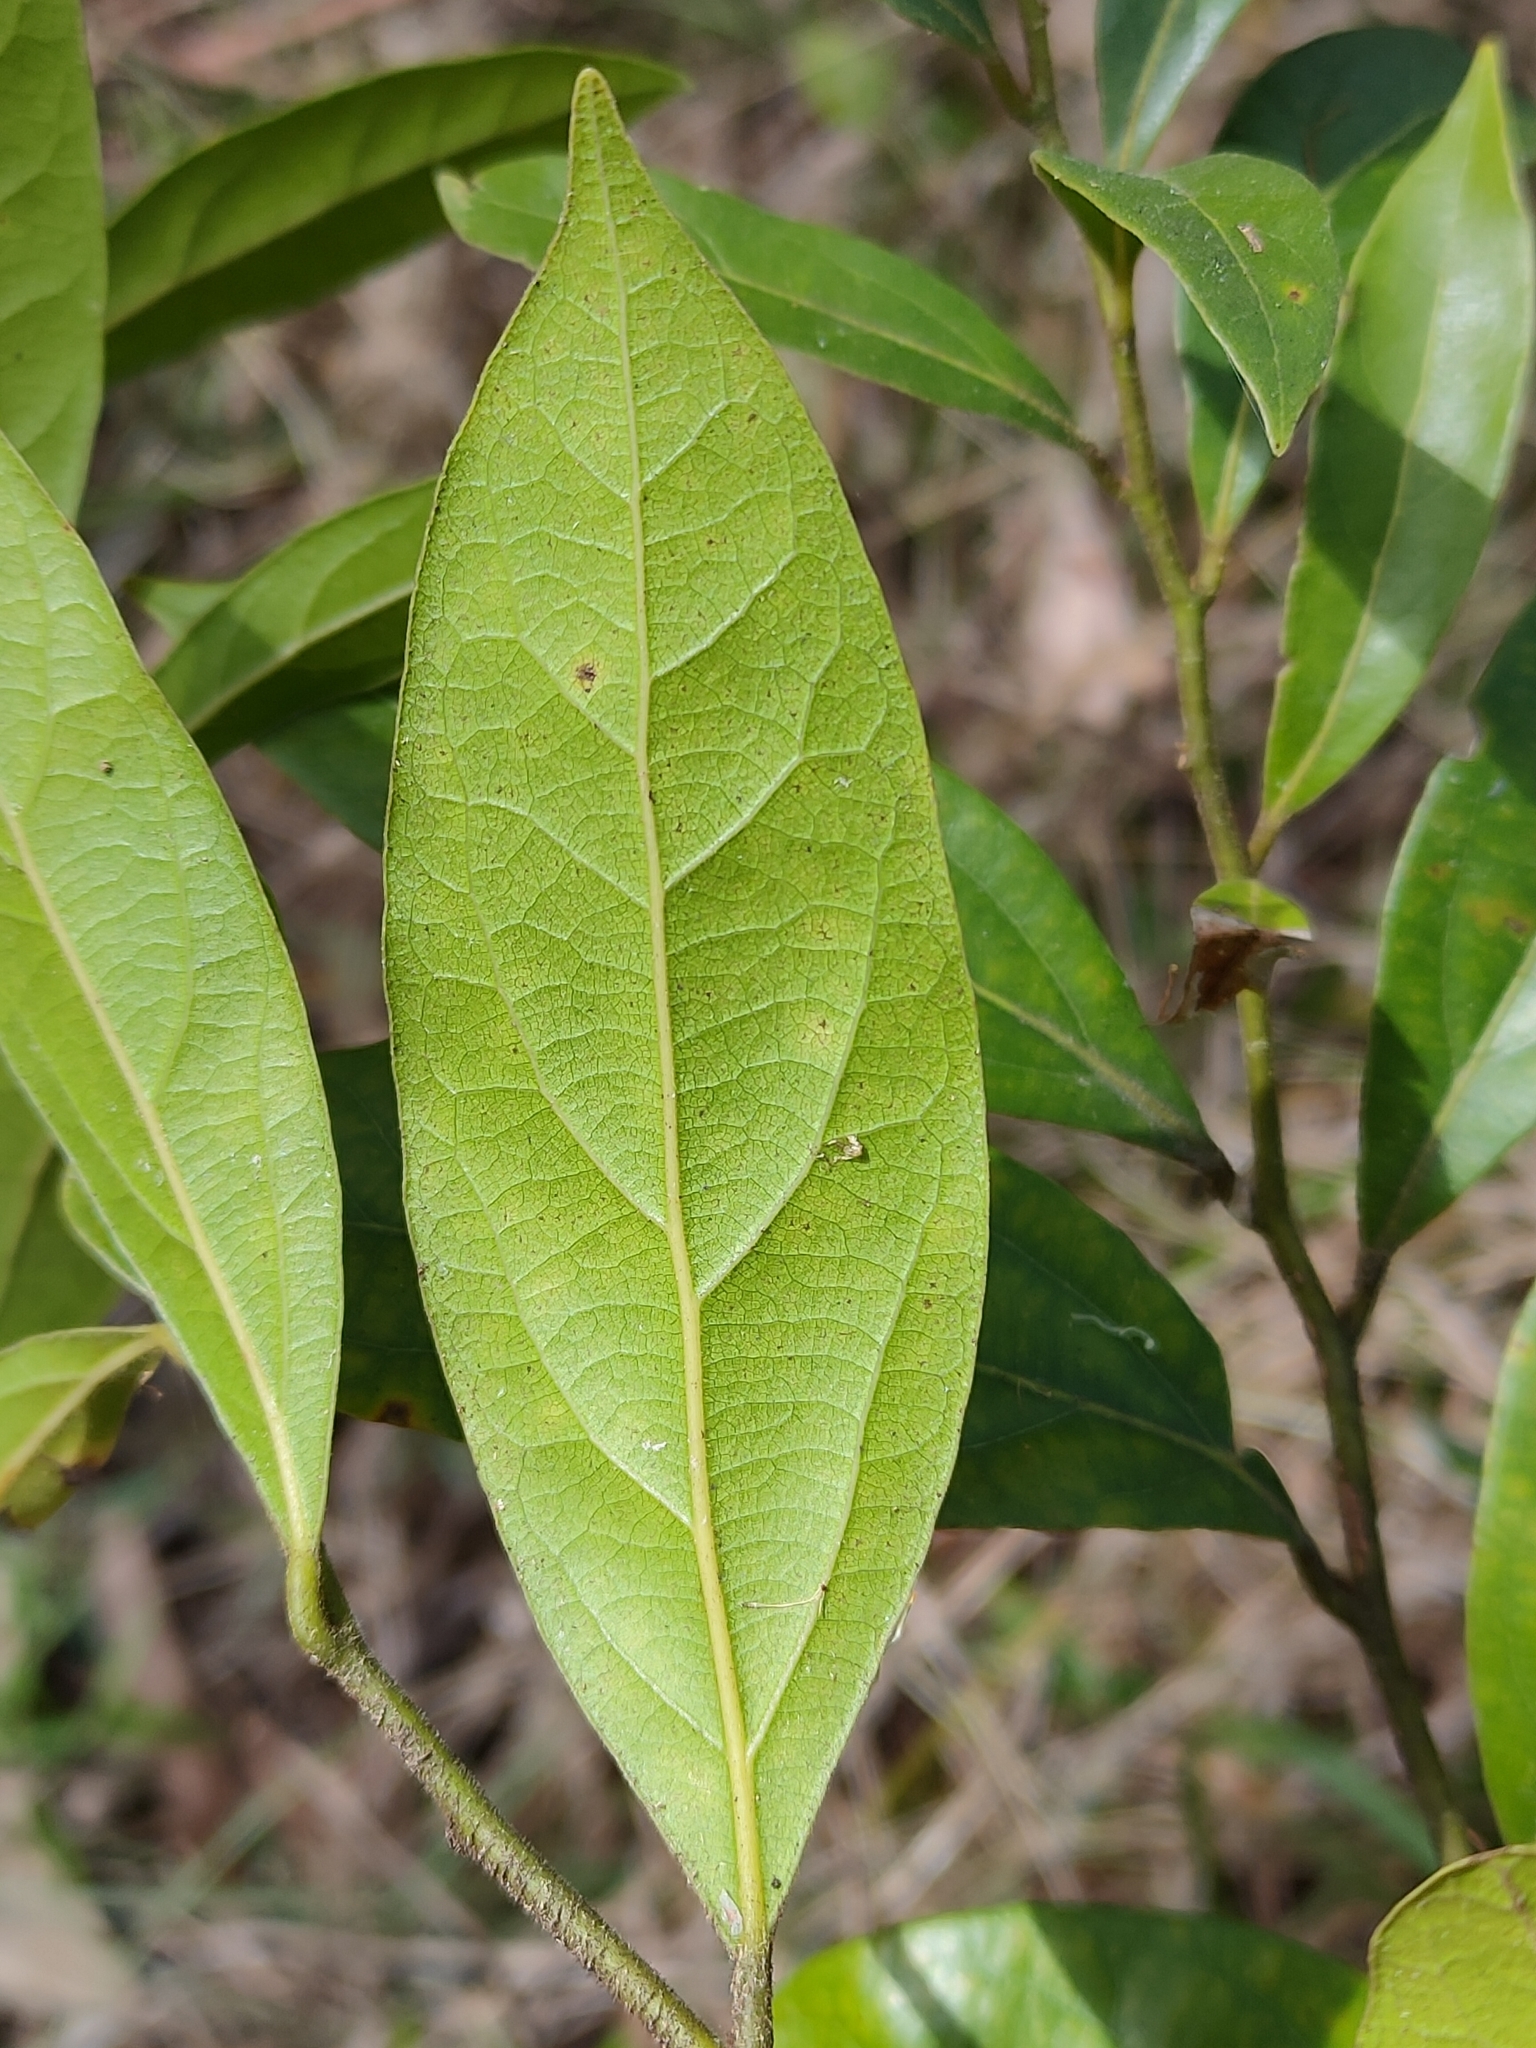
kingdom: Plantae
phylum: Tracheophyta
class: Magnoliopsida
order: Laurales
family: Lauraceae
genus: Cryptocarya
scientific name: Cryptocarya triplinervis
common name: Three-vein cryptocarya
